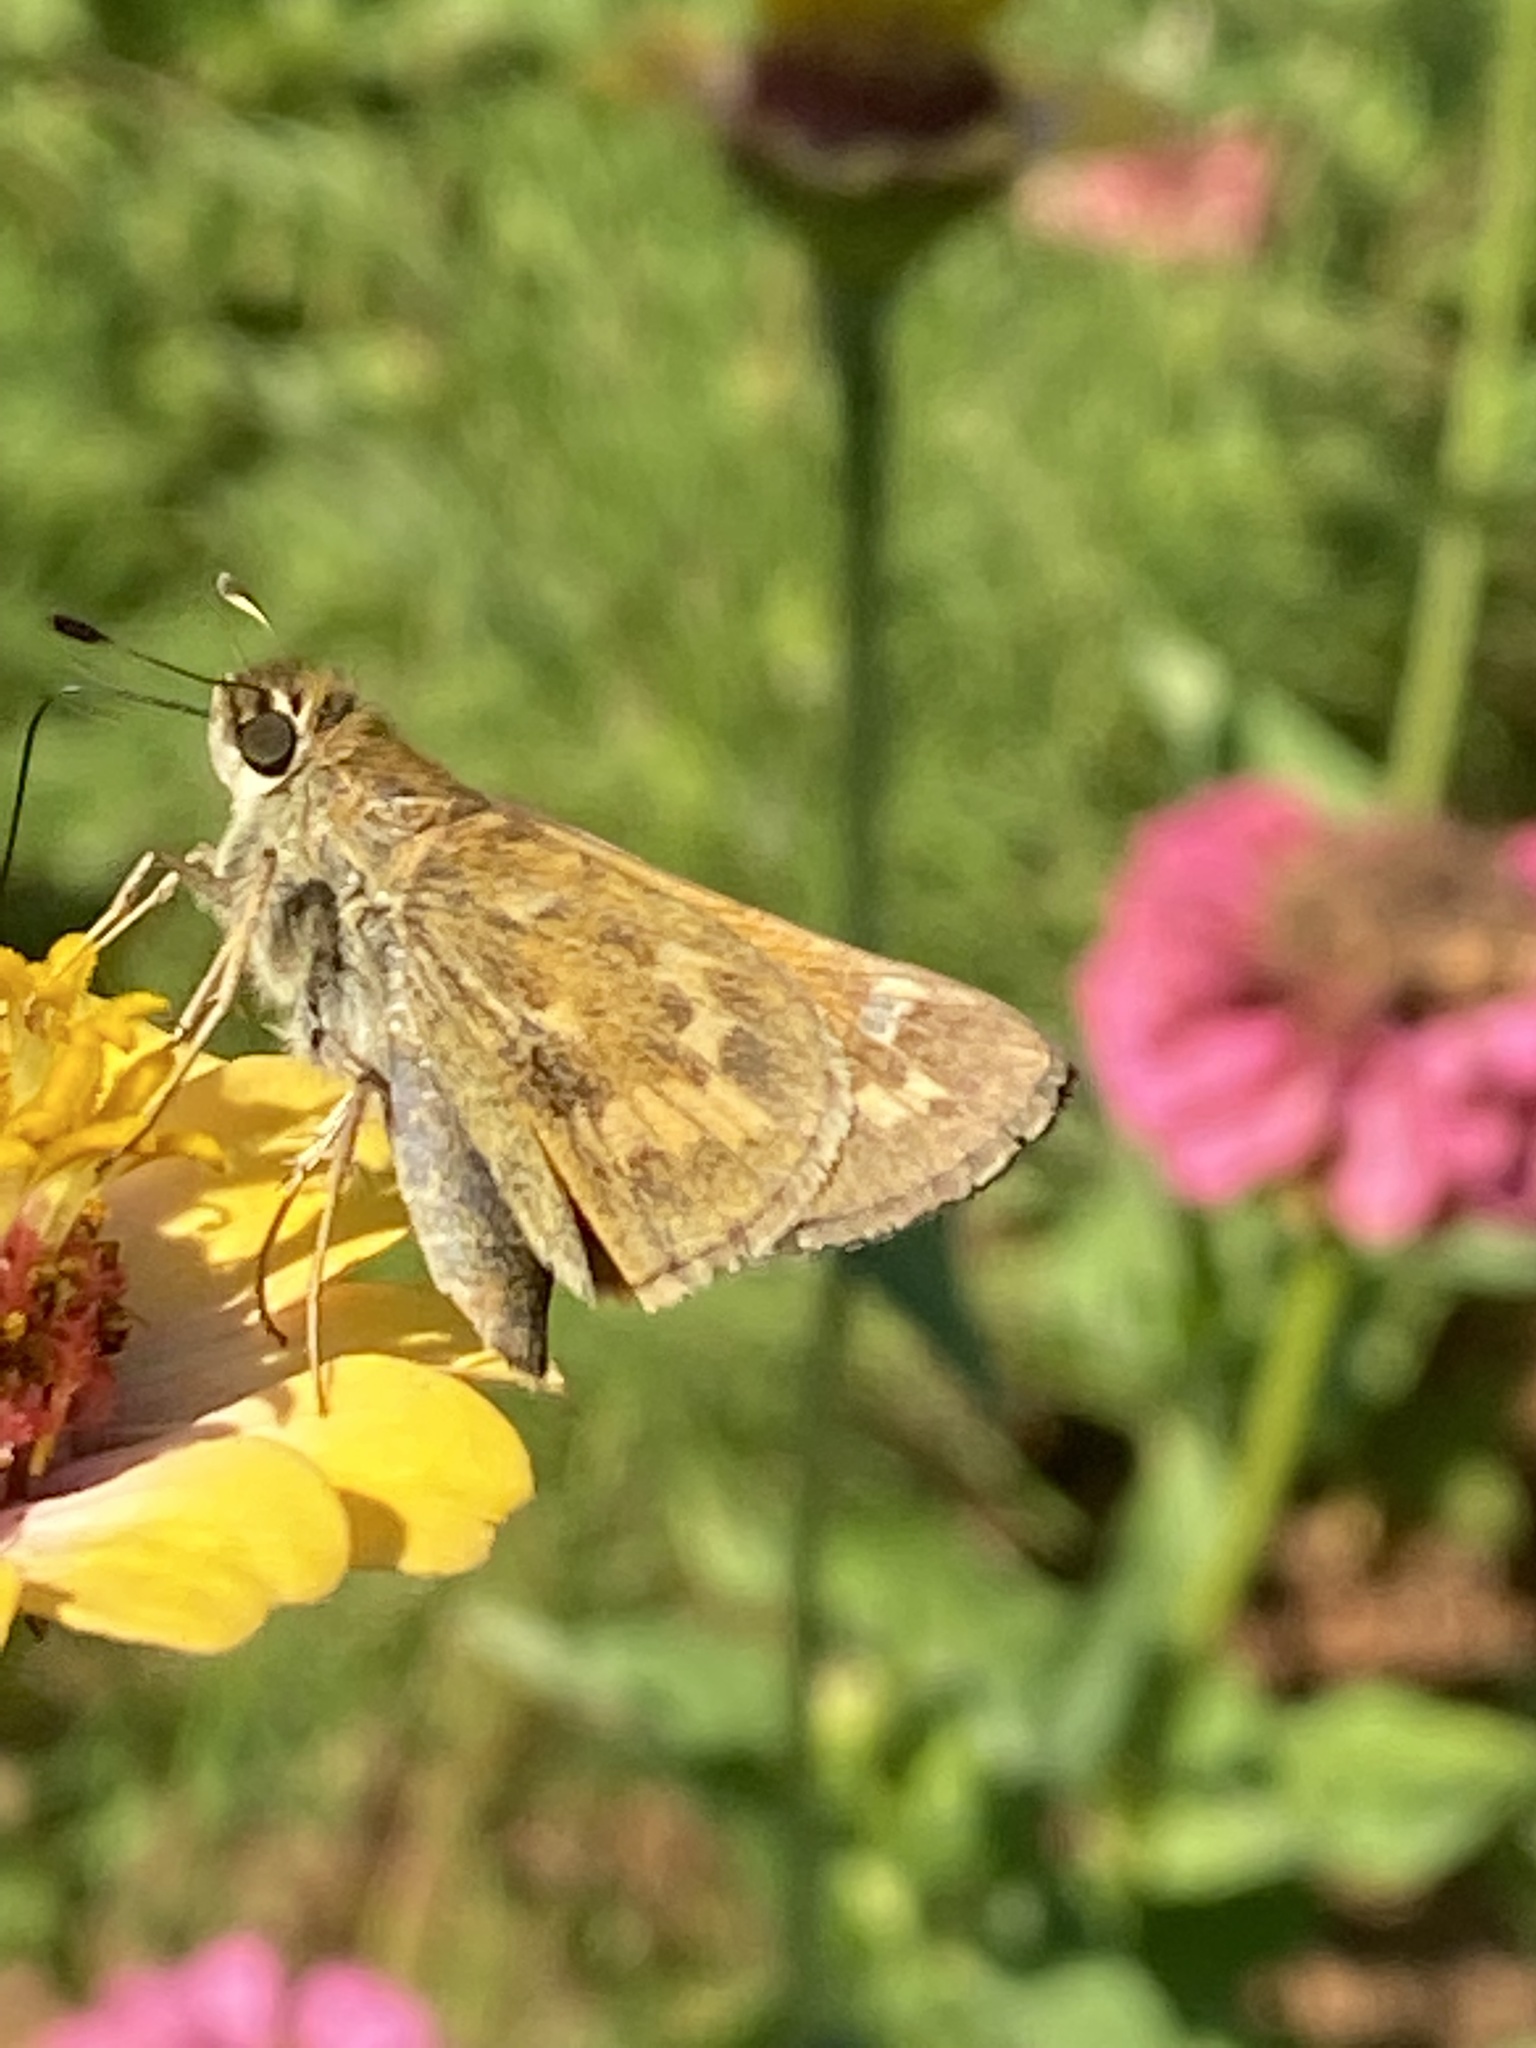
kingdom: Animalia
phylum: Arthropoda
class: Insecta
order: Lepidoptera
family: Hesperiidae
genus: Atalopedes
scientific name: Atalopedes
